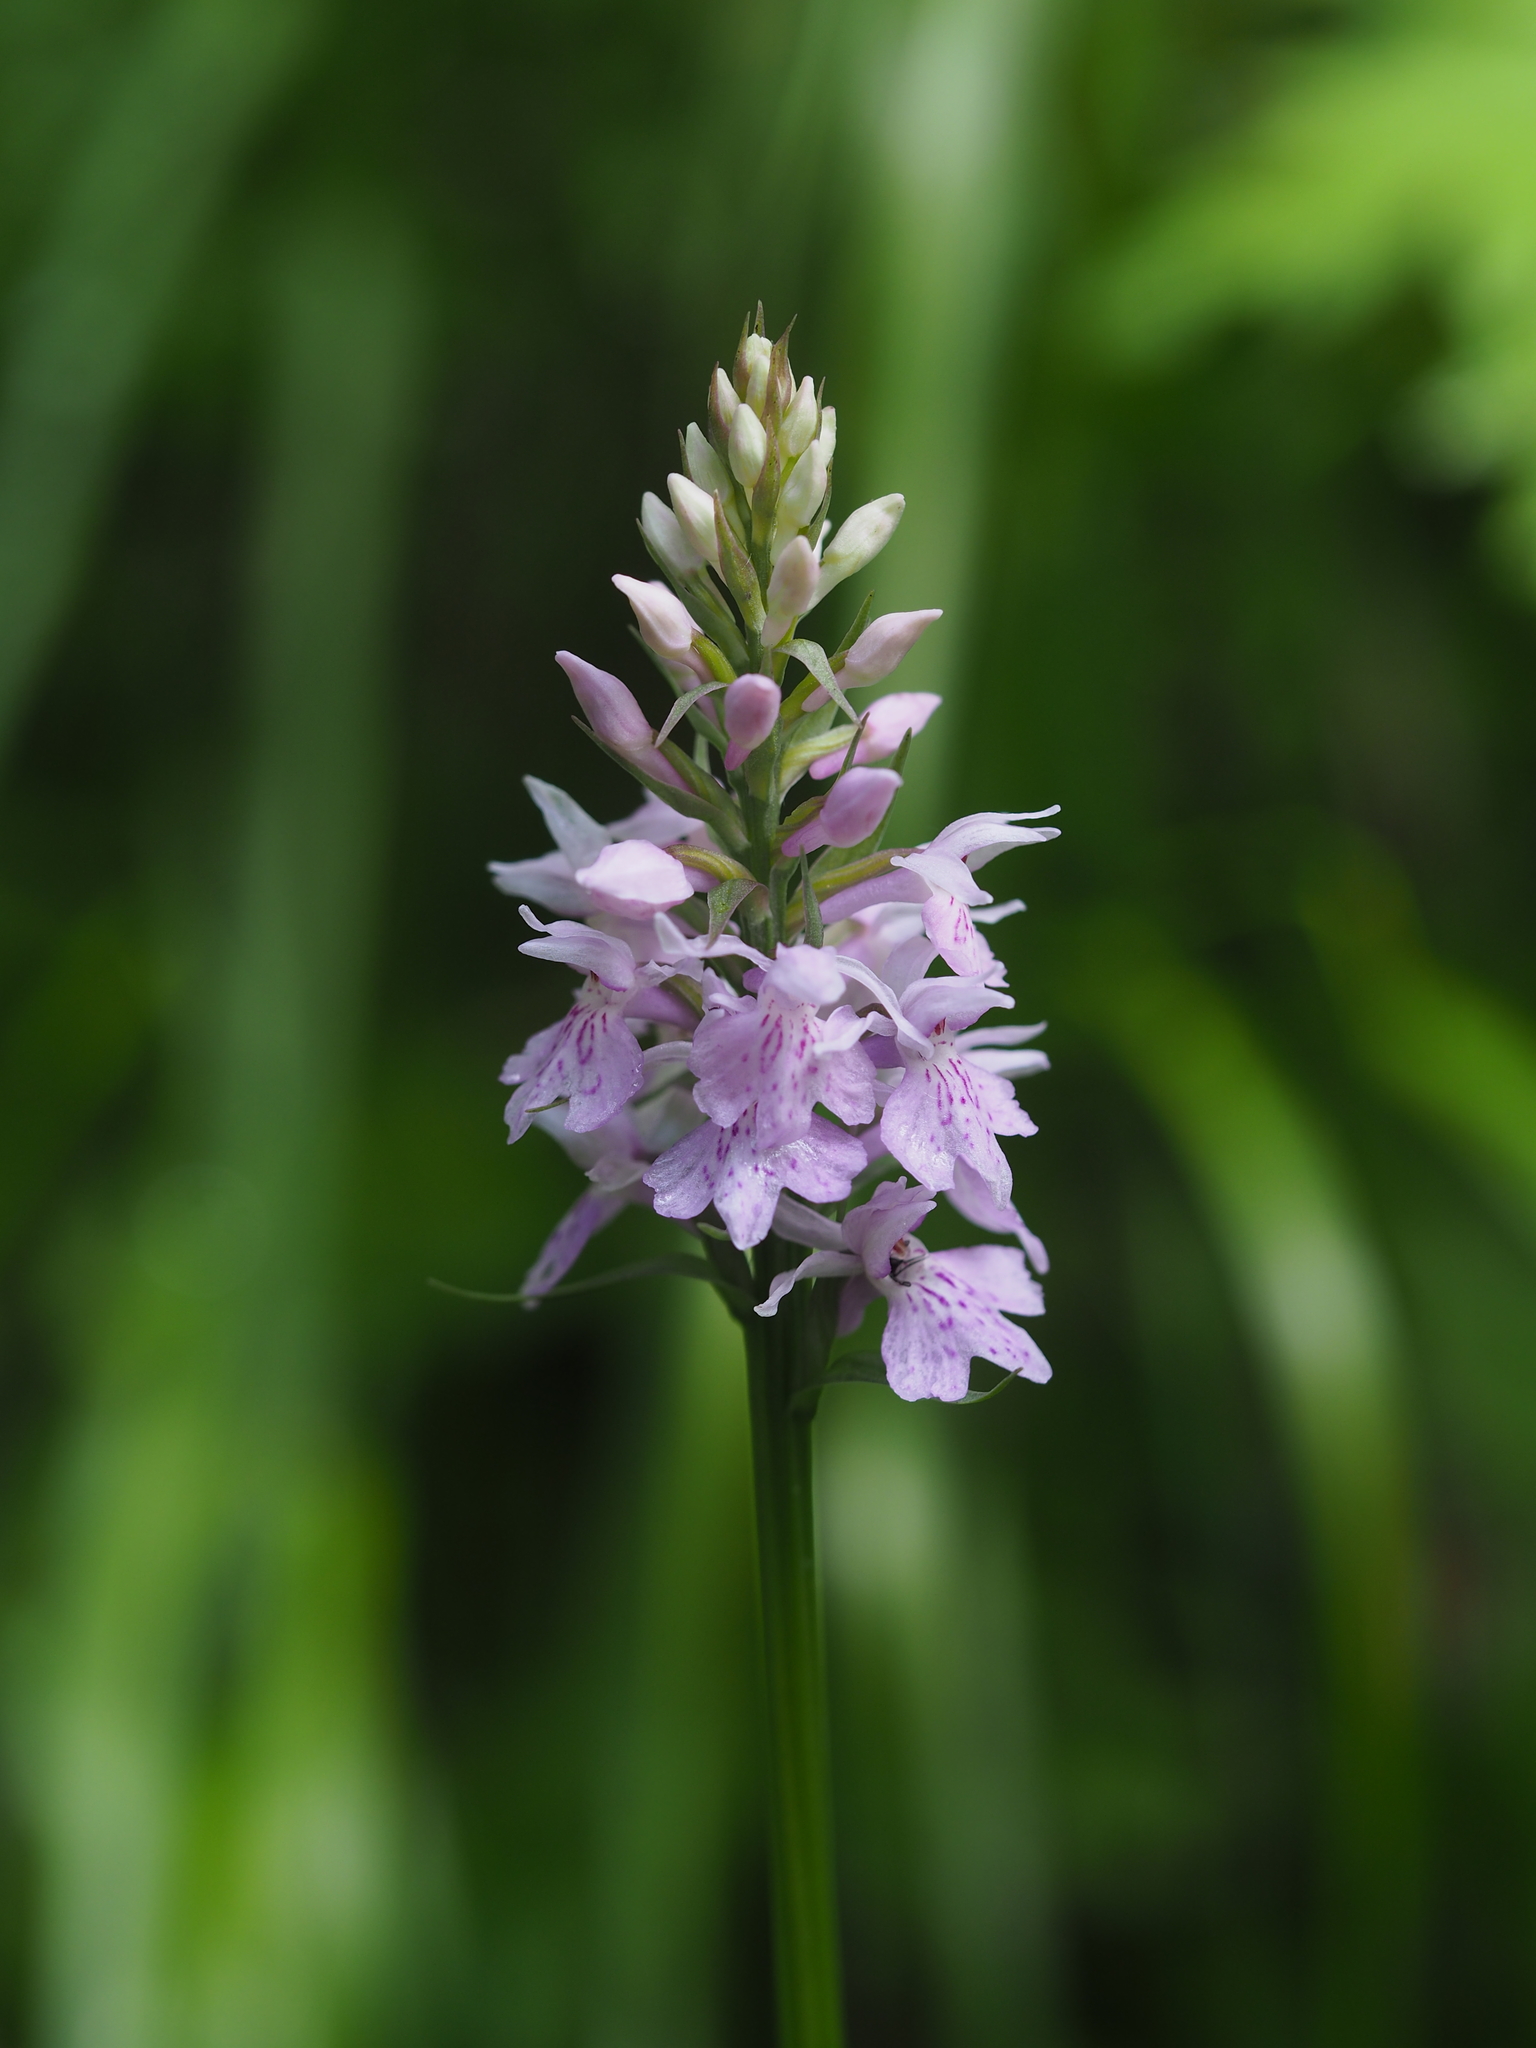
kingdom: Plantae
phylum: Tracheophyta
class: Liliopsida
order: Asparagales
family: Orchidaceae
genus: Dactylorhiza
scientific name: Dactylorhiza maculata
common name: Heath spotted-orchid
